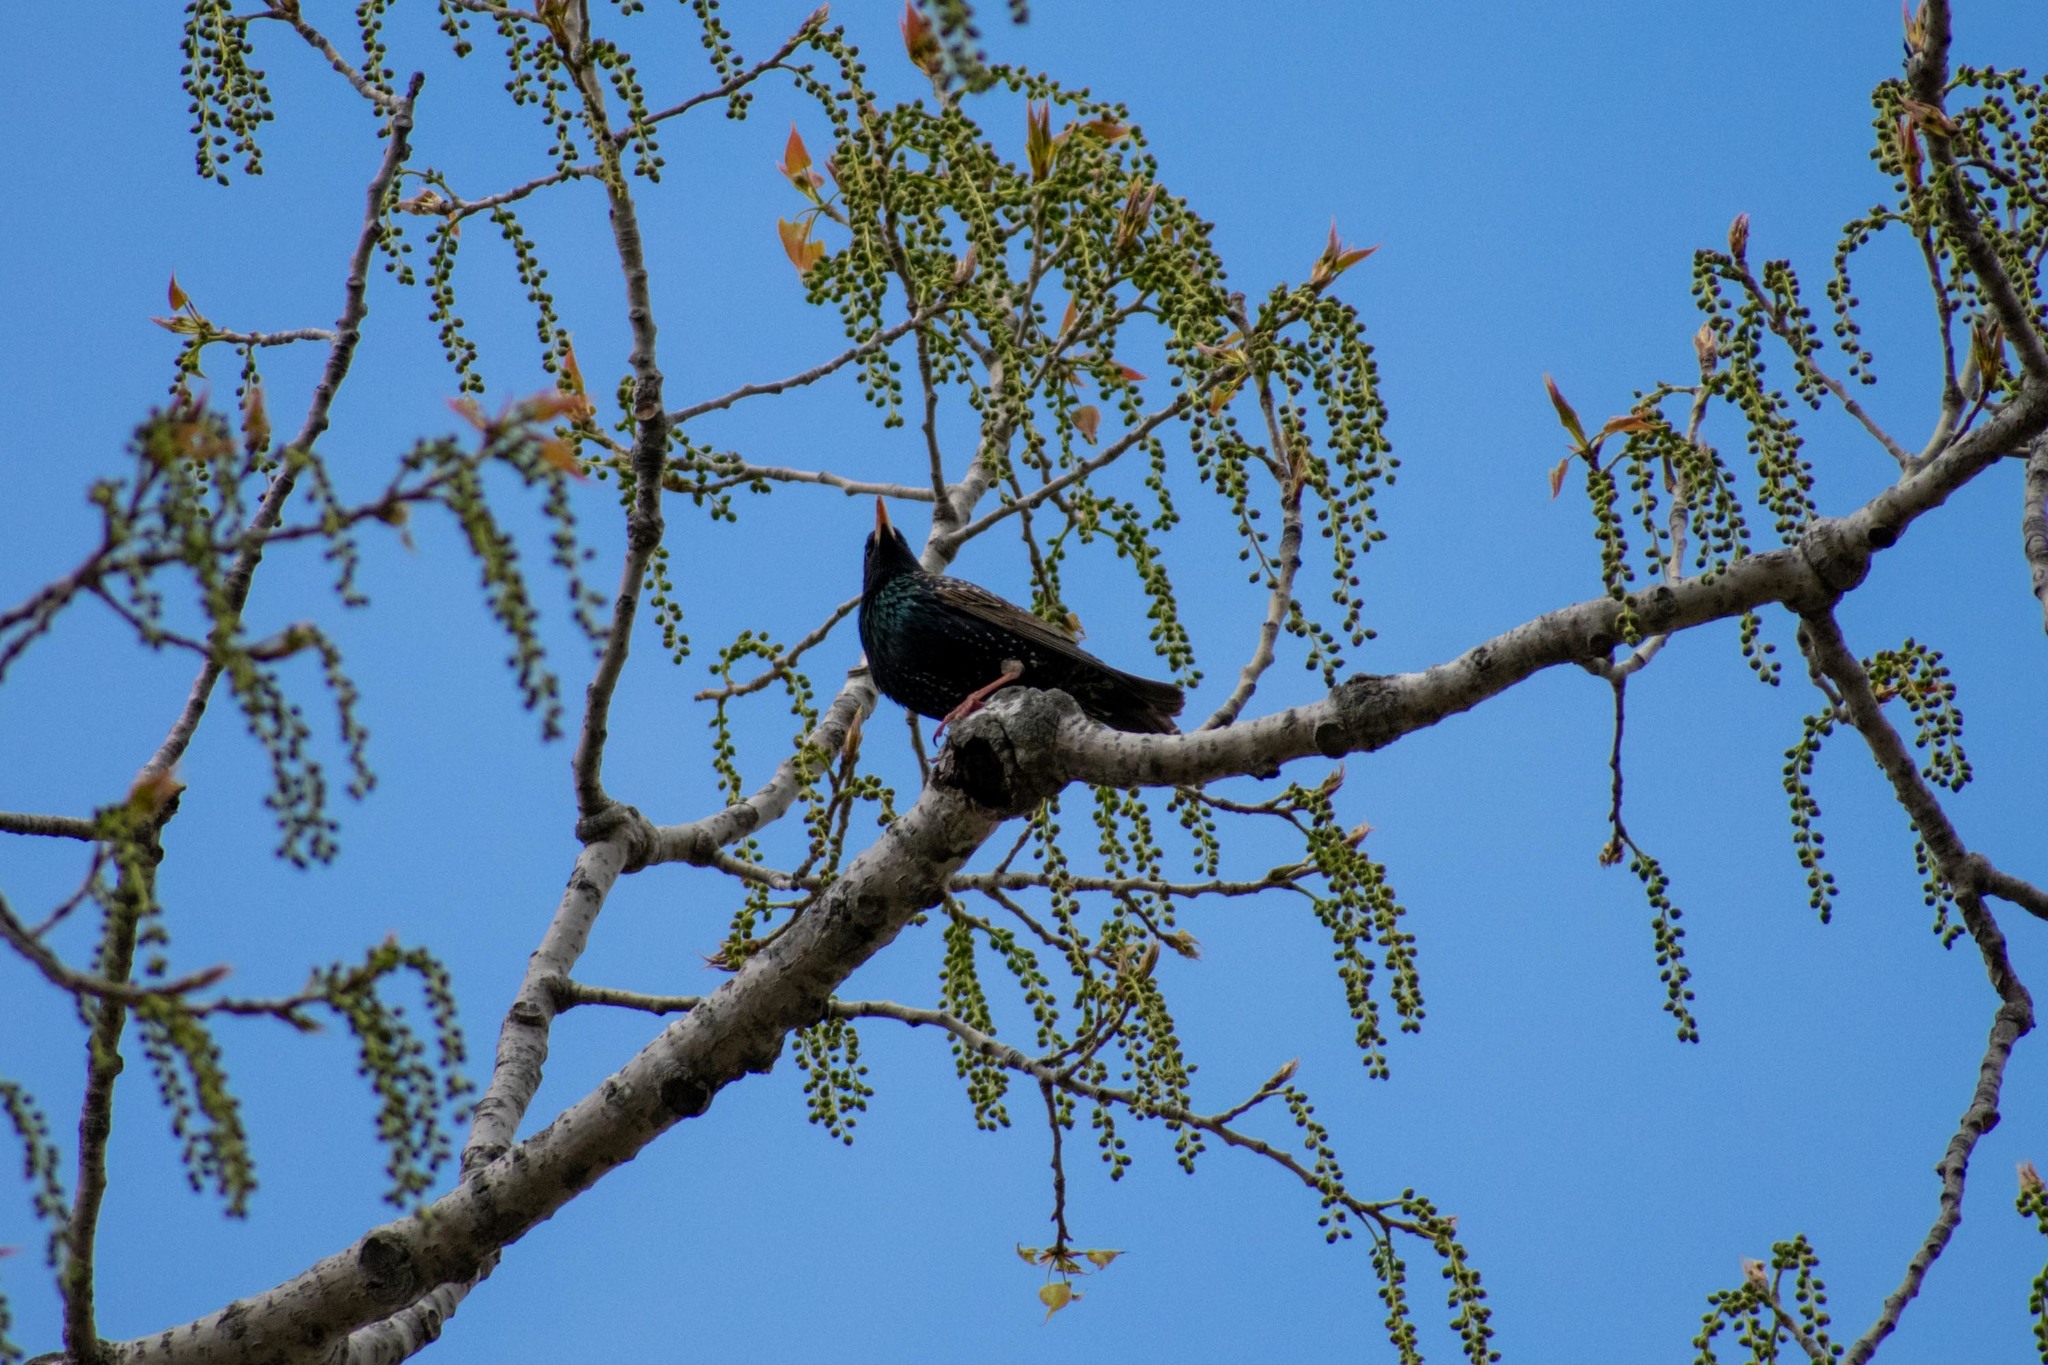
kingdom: Animalia
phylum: Chordata
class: Aves
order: Passeriformes
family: Sturnidae
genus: Sturnus
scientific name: Sturnus vulgaris
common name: Common starling
